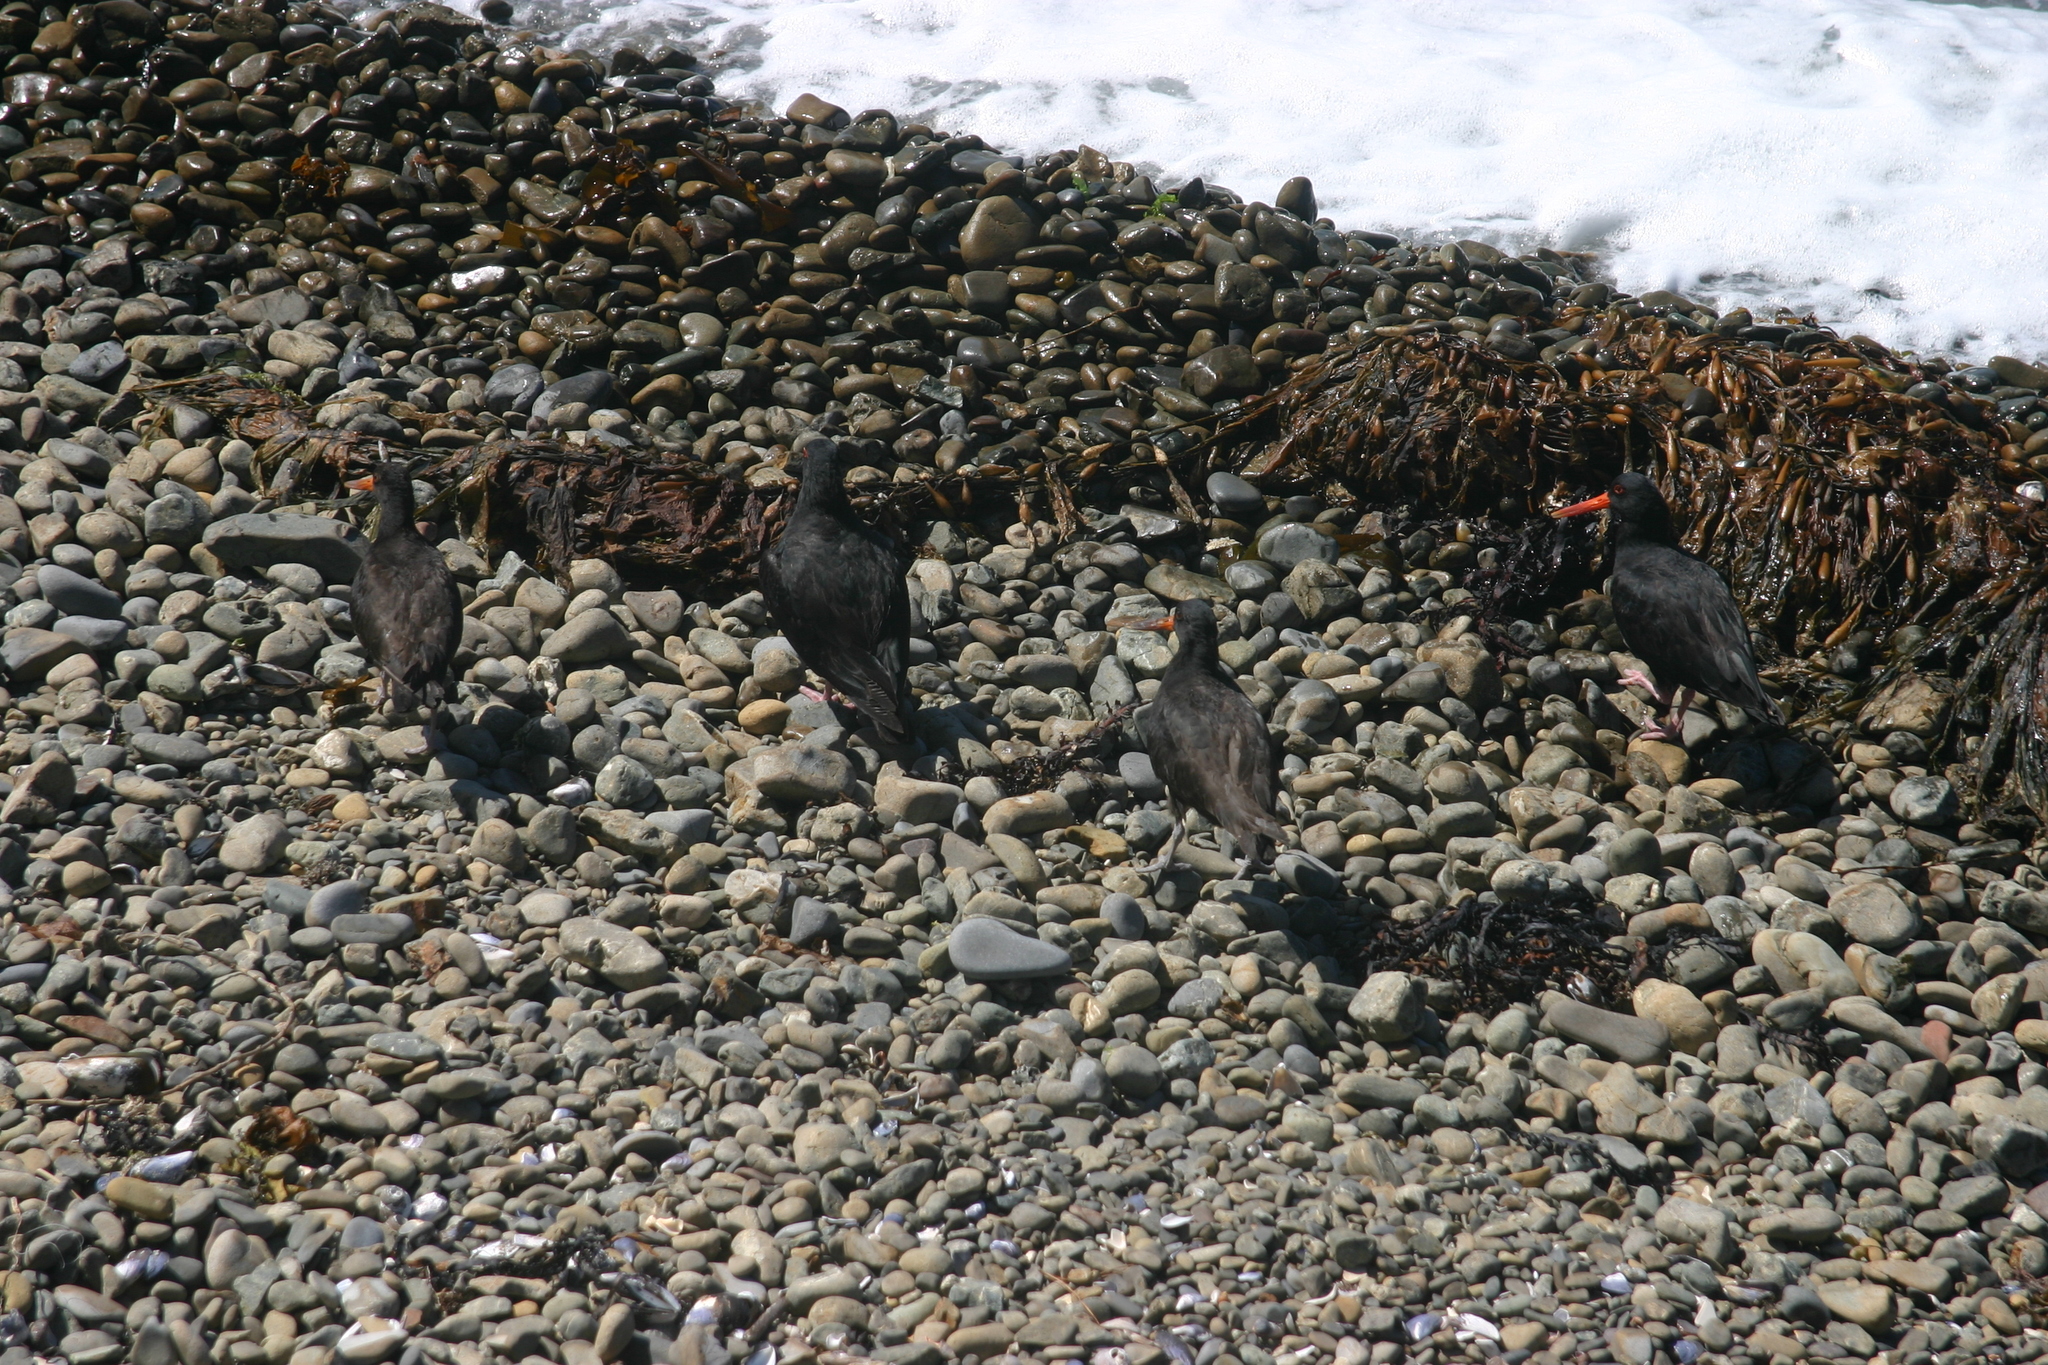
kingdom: Animalia
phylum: Chordata
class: Aves
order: Charadriiformes
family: Haematopodidae
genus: Haematopus
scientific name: Haematopus unicolor
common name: Variable oystercatcher
